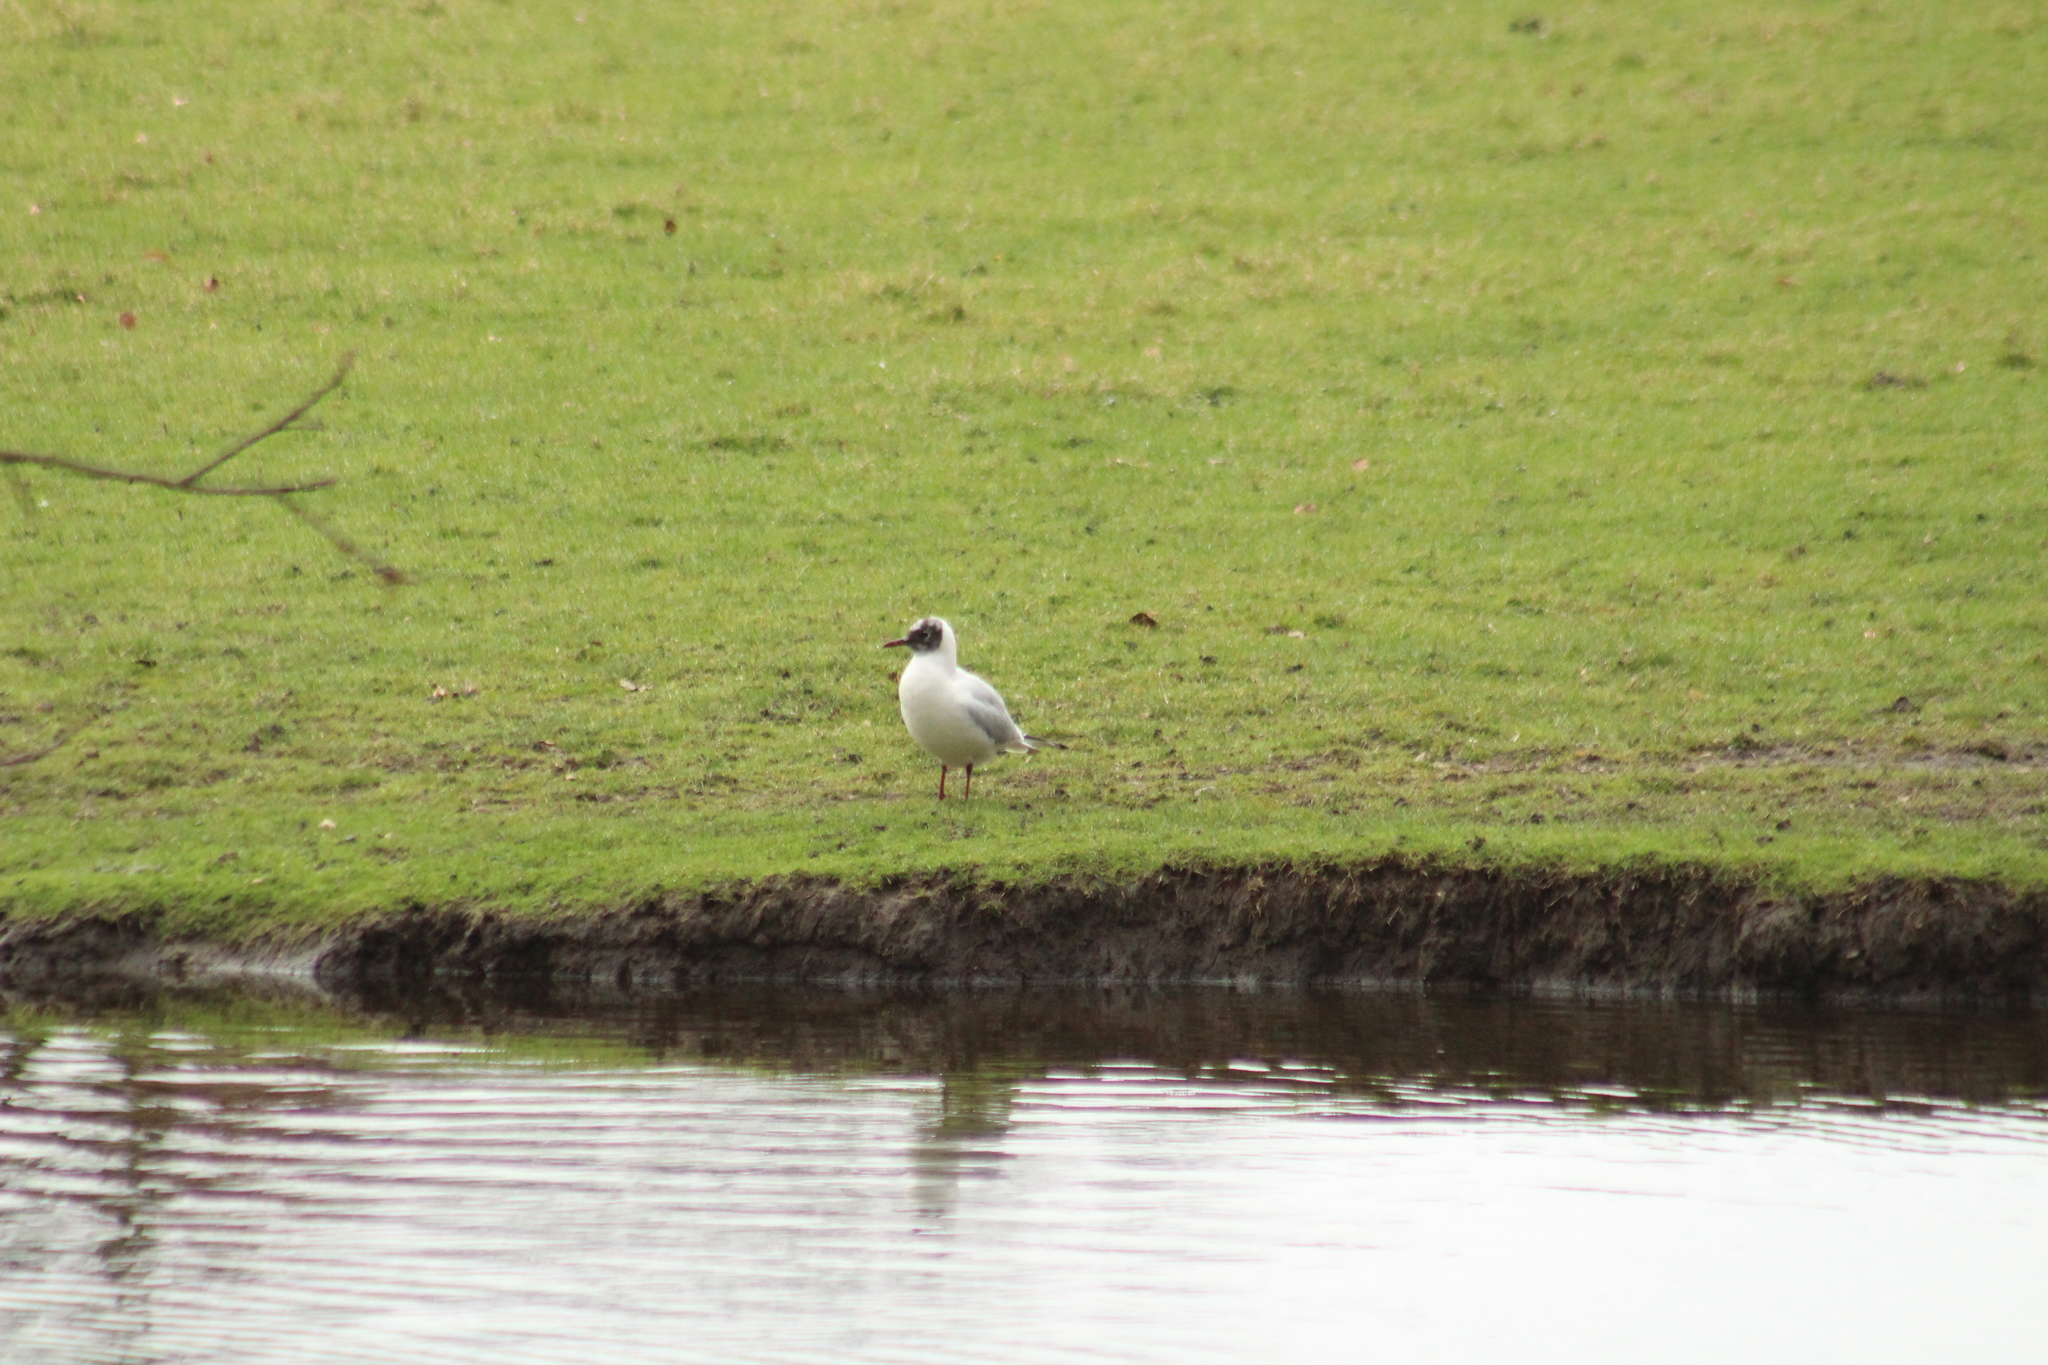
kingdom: Animalia
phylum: Chordata
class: Aves
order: Charadriiformes
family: Laridae
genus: Chroicocephalus
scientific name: Chroicocephalus ridibundus
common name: Black-headed gull
